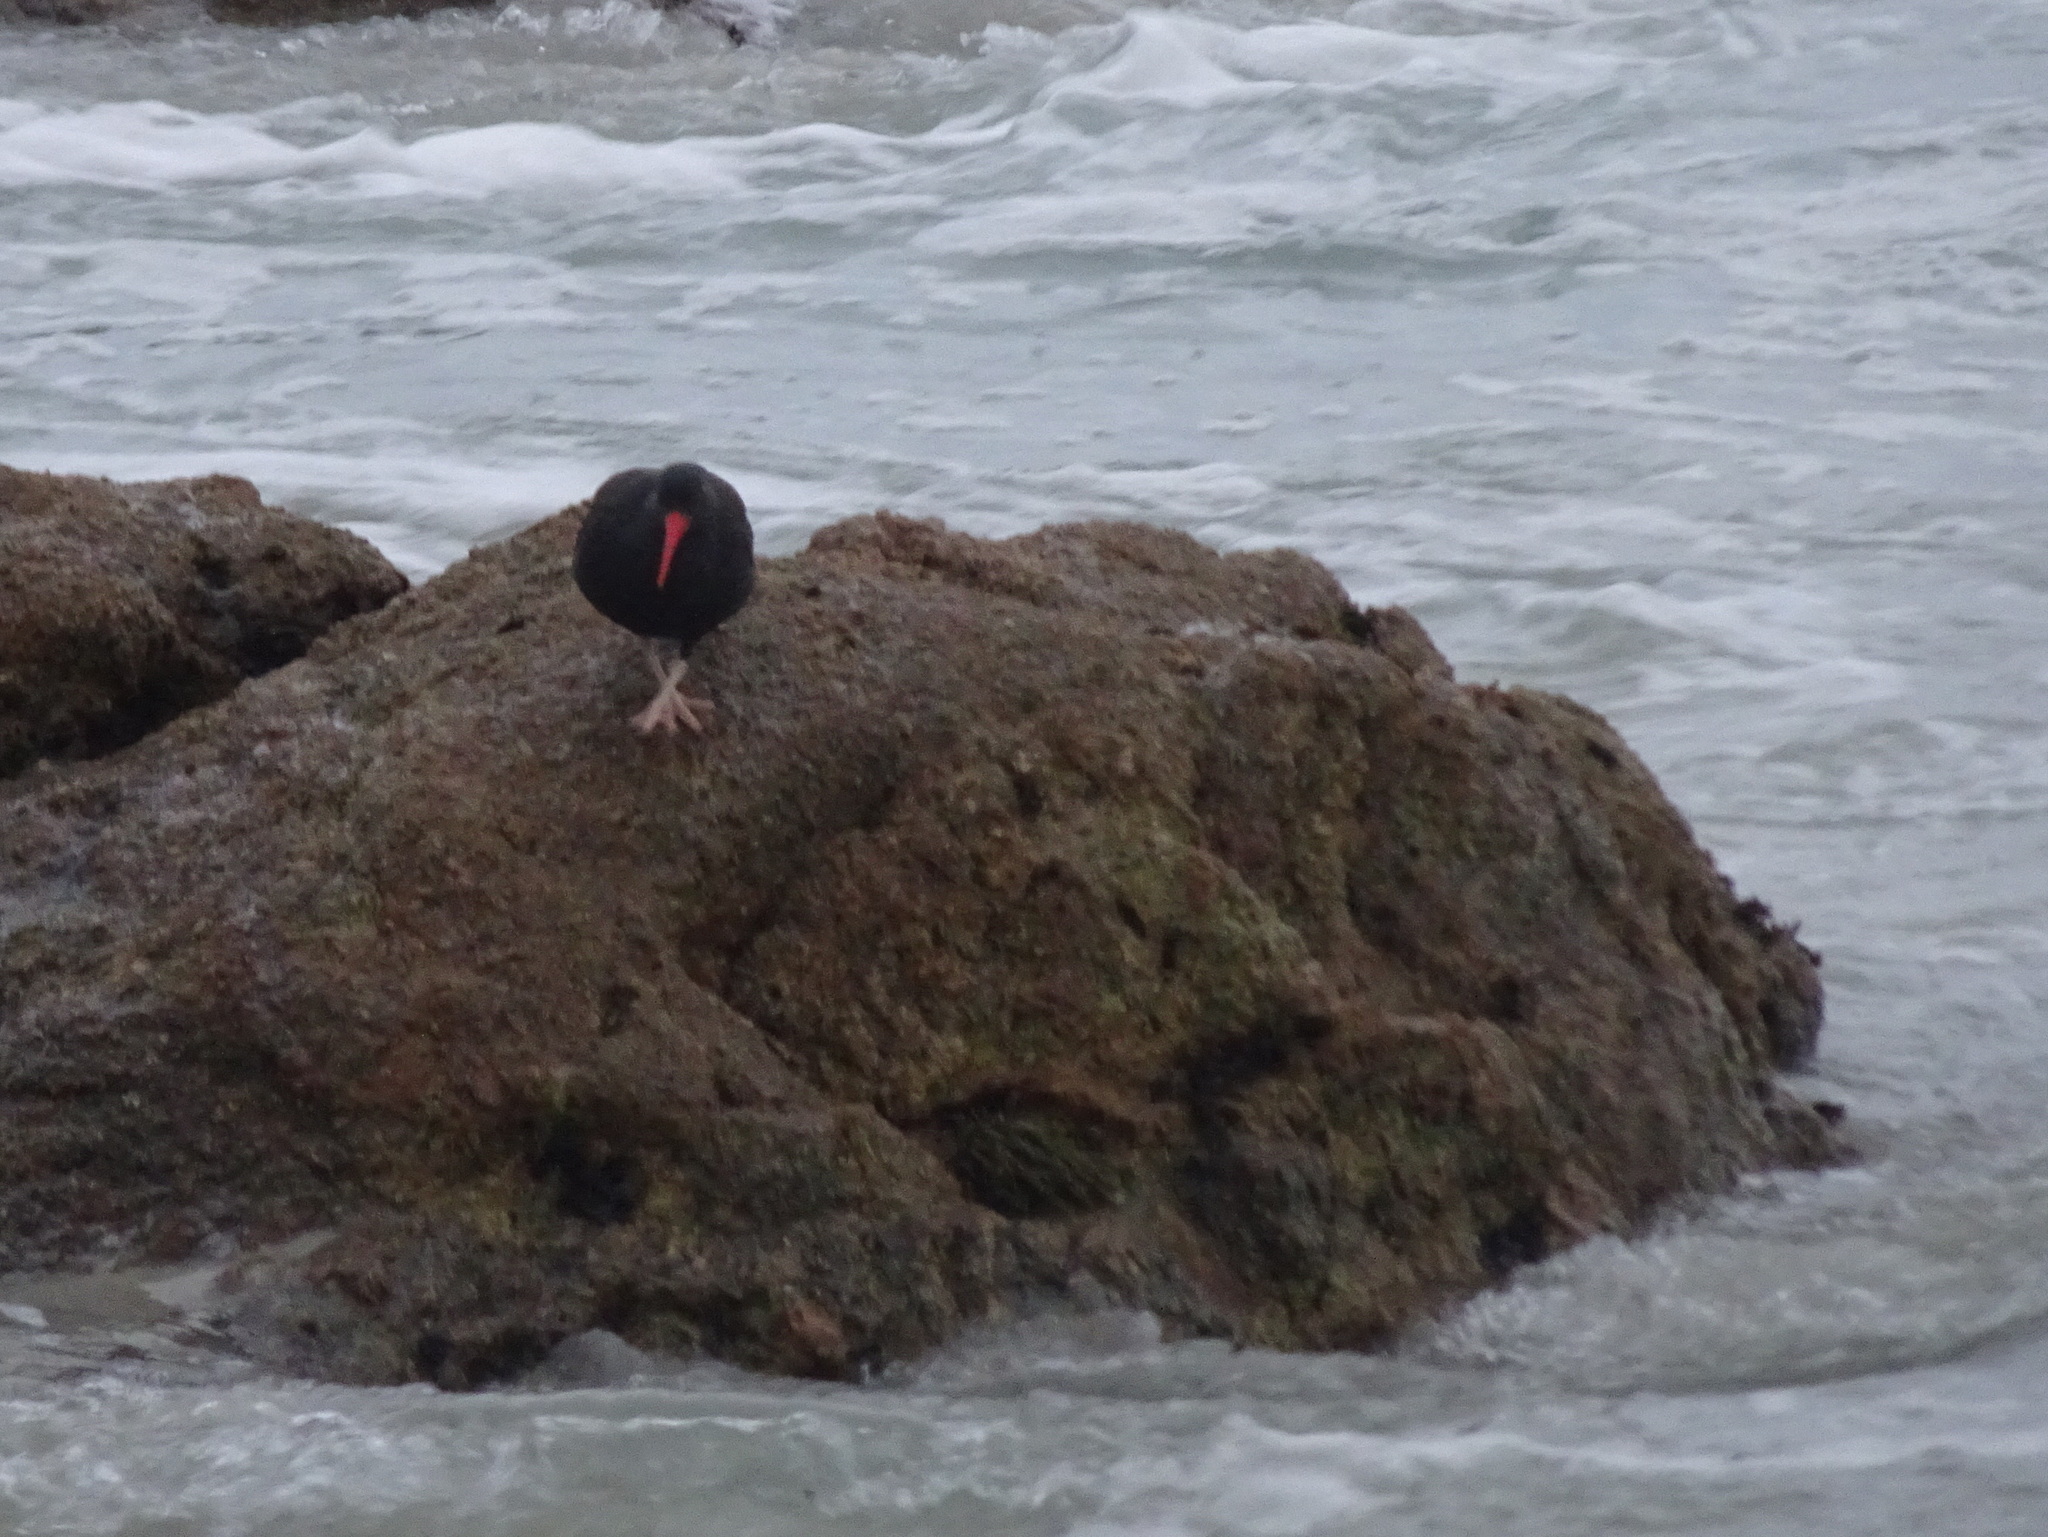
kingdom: Animalia
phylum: Chordata
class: Aves
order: Charadriiformes
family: Haematopodidae
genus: Haematopus
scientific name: Haematopus bachmani
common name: Black oystercatcher
